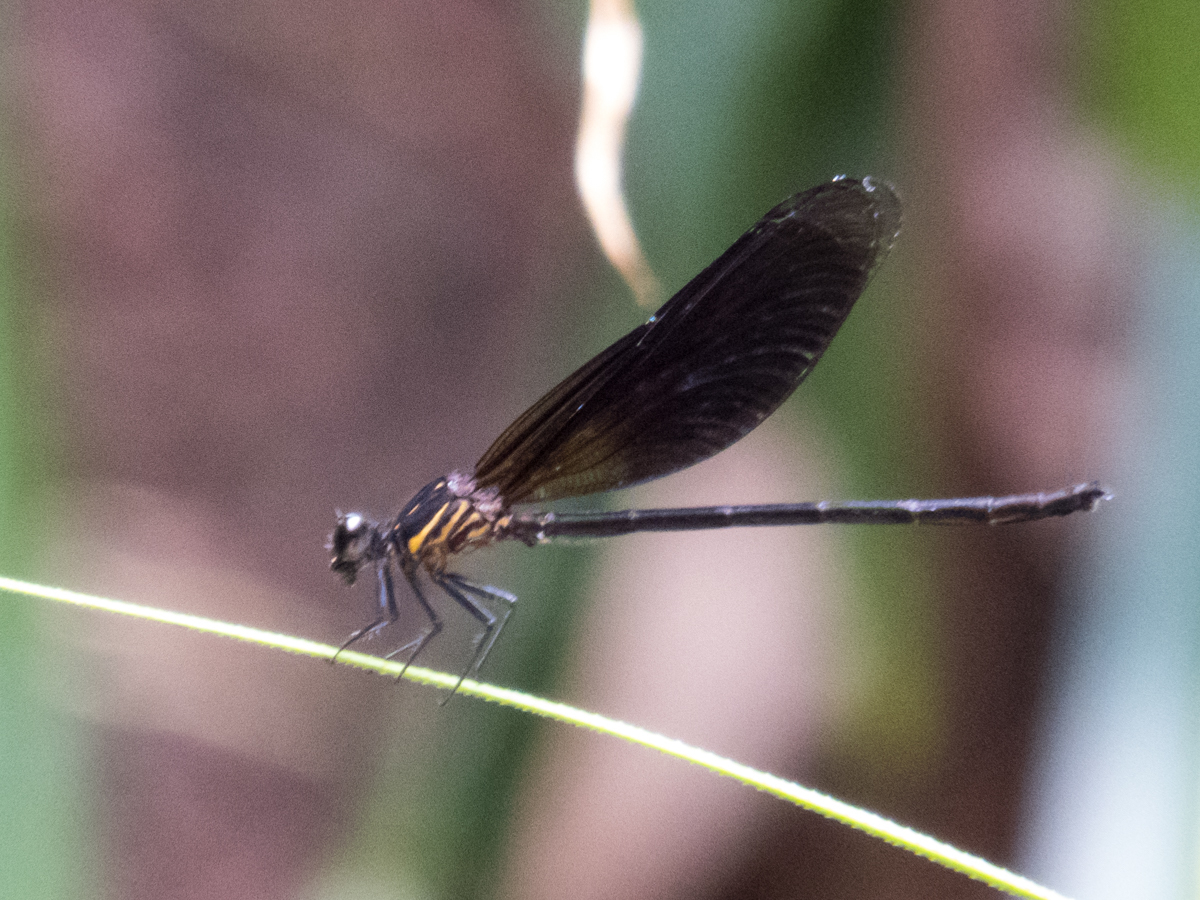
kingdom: Animalia
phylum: Arthropoda
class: Insecta
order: Odonata
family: Euphaeidae
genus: Dysphaea
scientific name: Dysphaea gloriosa
